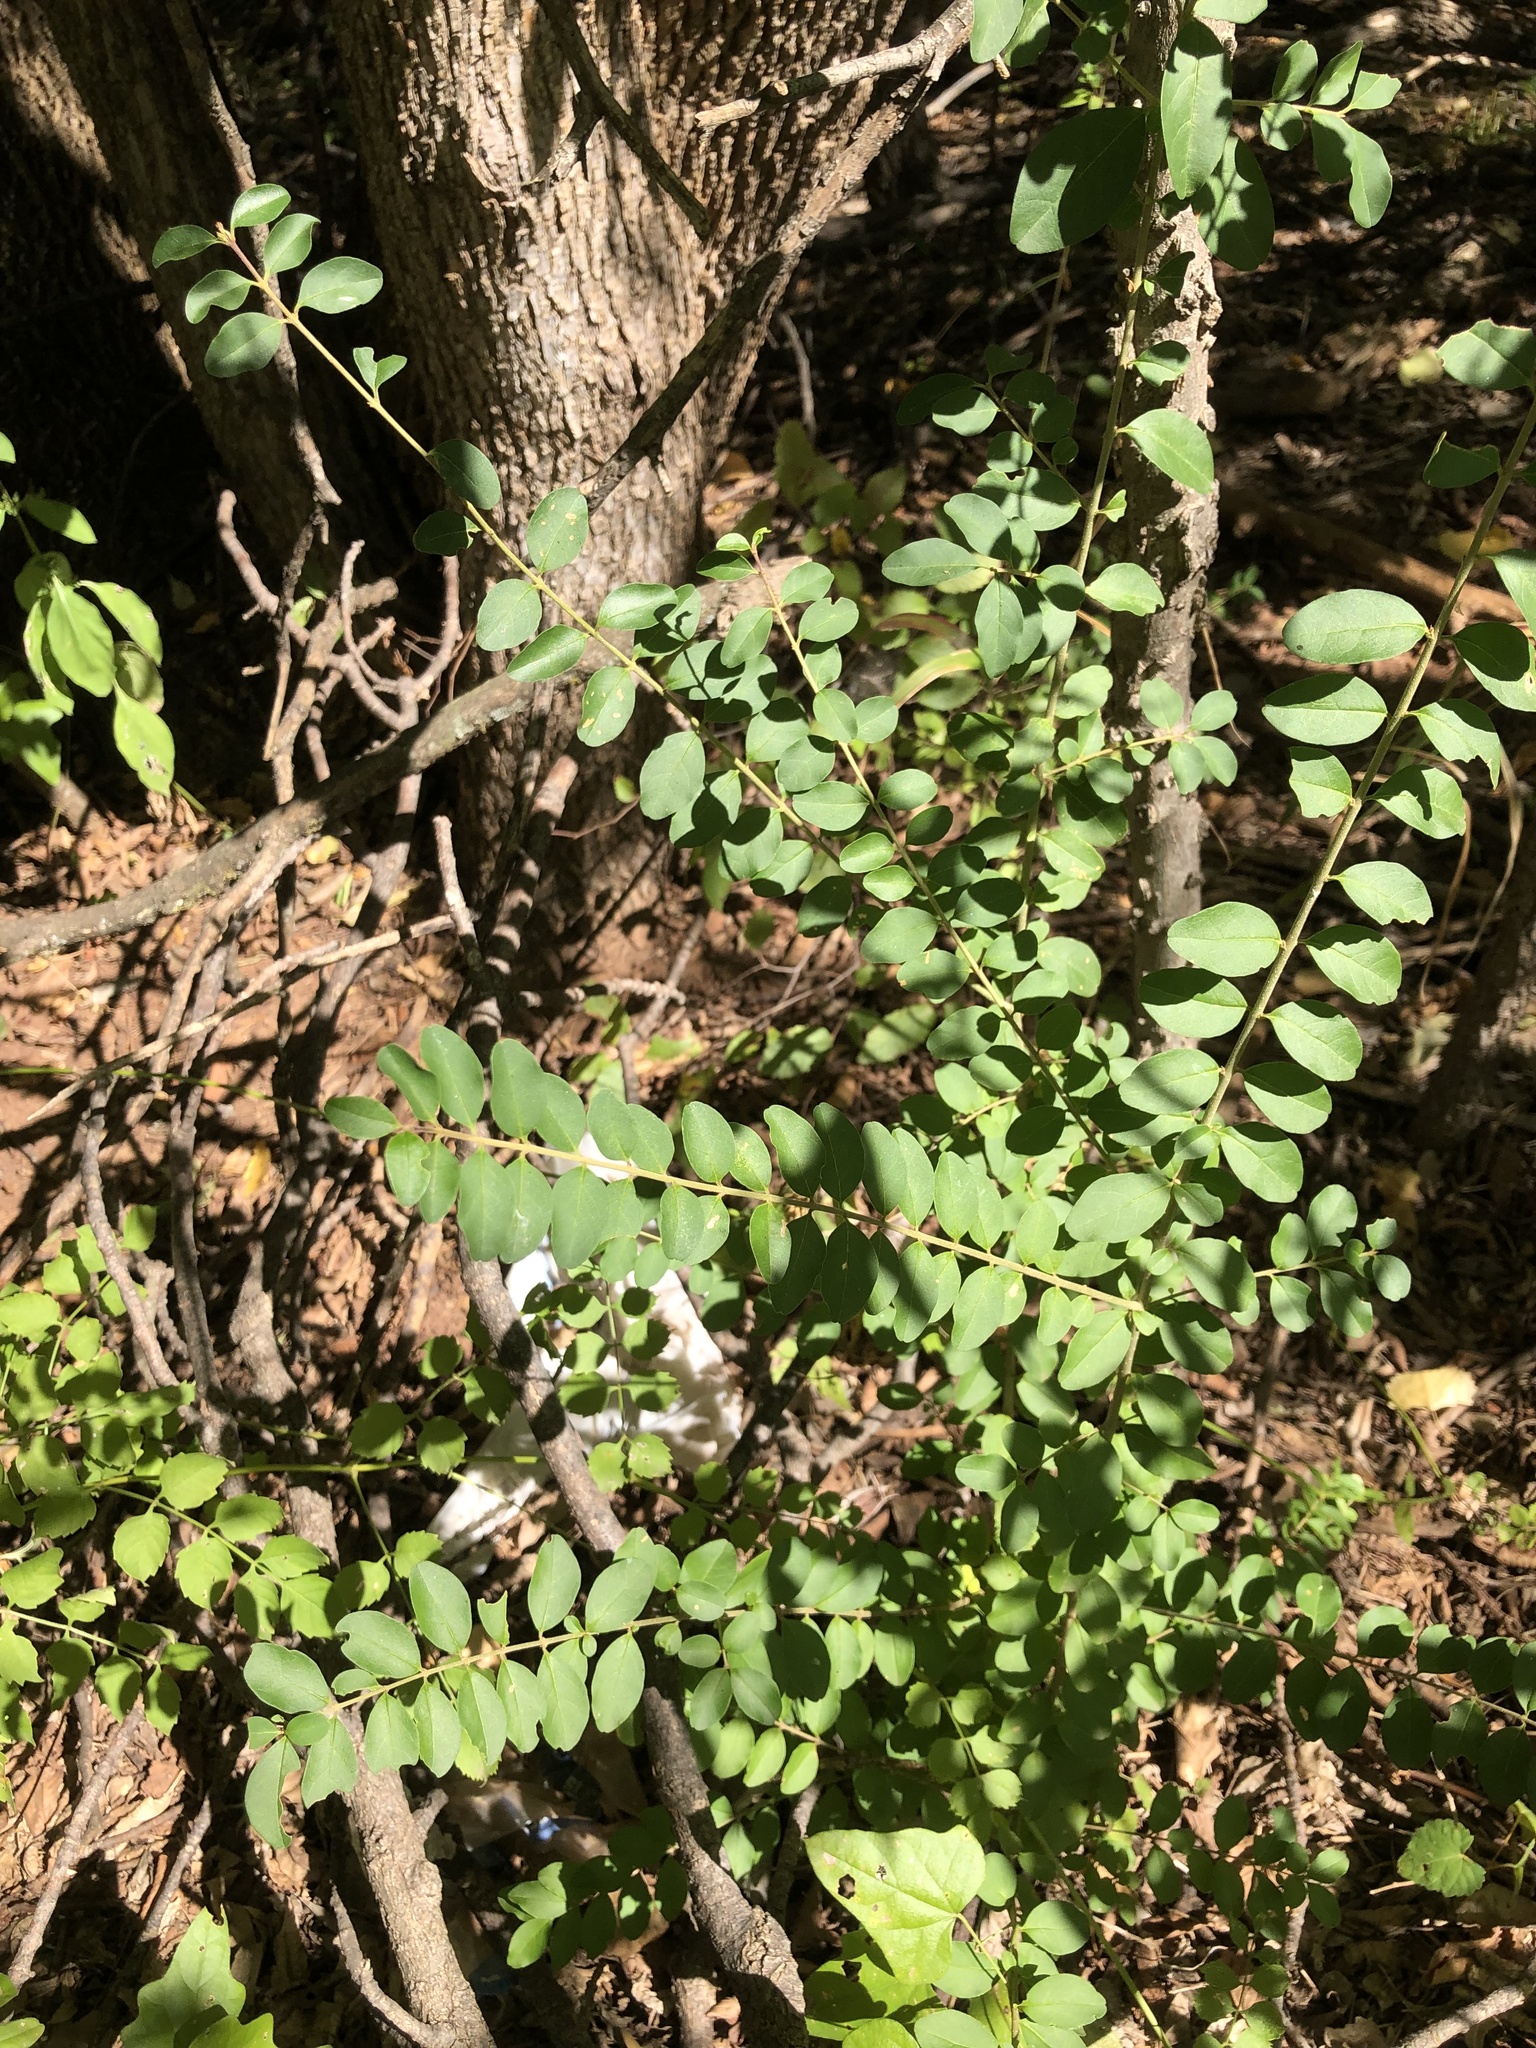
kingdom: Plantae
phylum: Tracheophyta
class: Magnoliopsida
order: Lamiales
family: Oleaceae
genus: Ligustrum
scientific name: Ligustrum sinense
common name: Chinese privet
